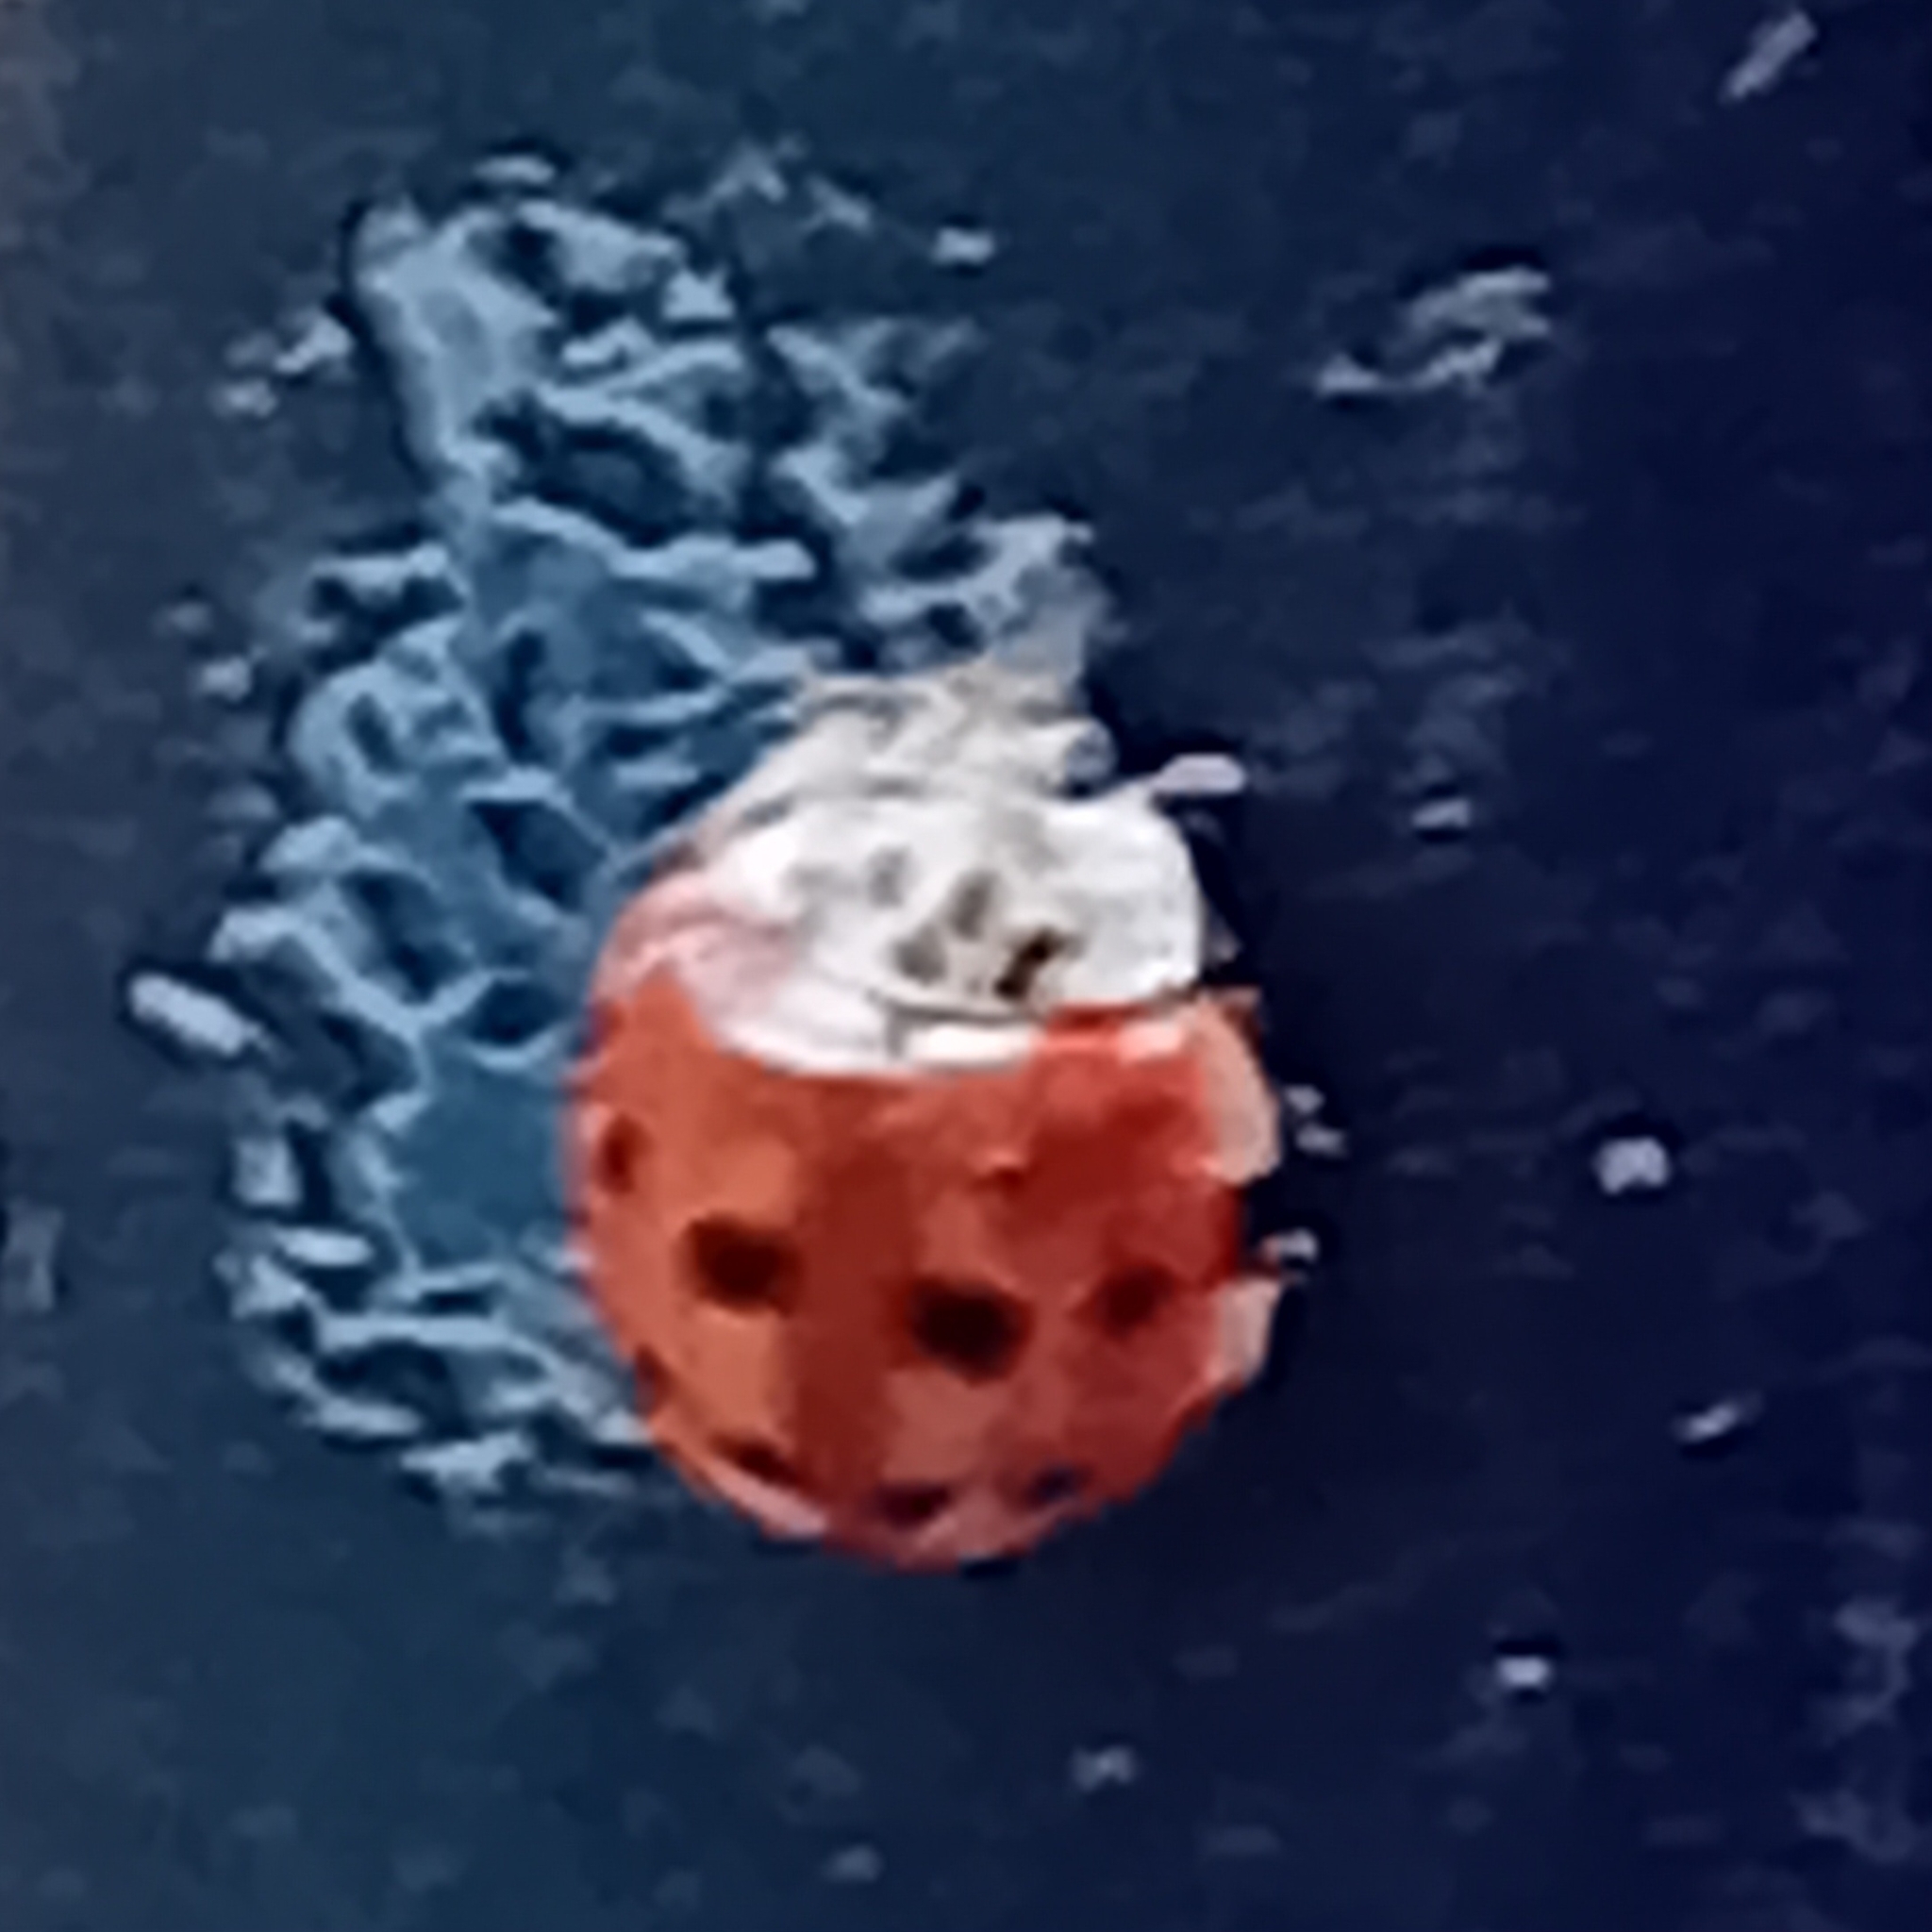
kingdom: Animalia
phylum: Arthropoda
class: Insecta
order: Coleoptera
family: Coccinellidae
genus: Harmonia
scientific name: Harmonia quadripunctata
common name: Cream-streaked ladybird
